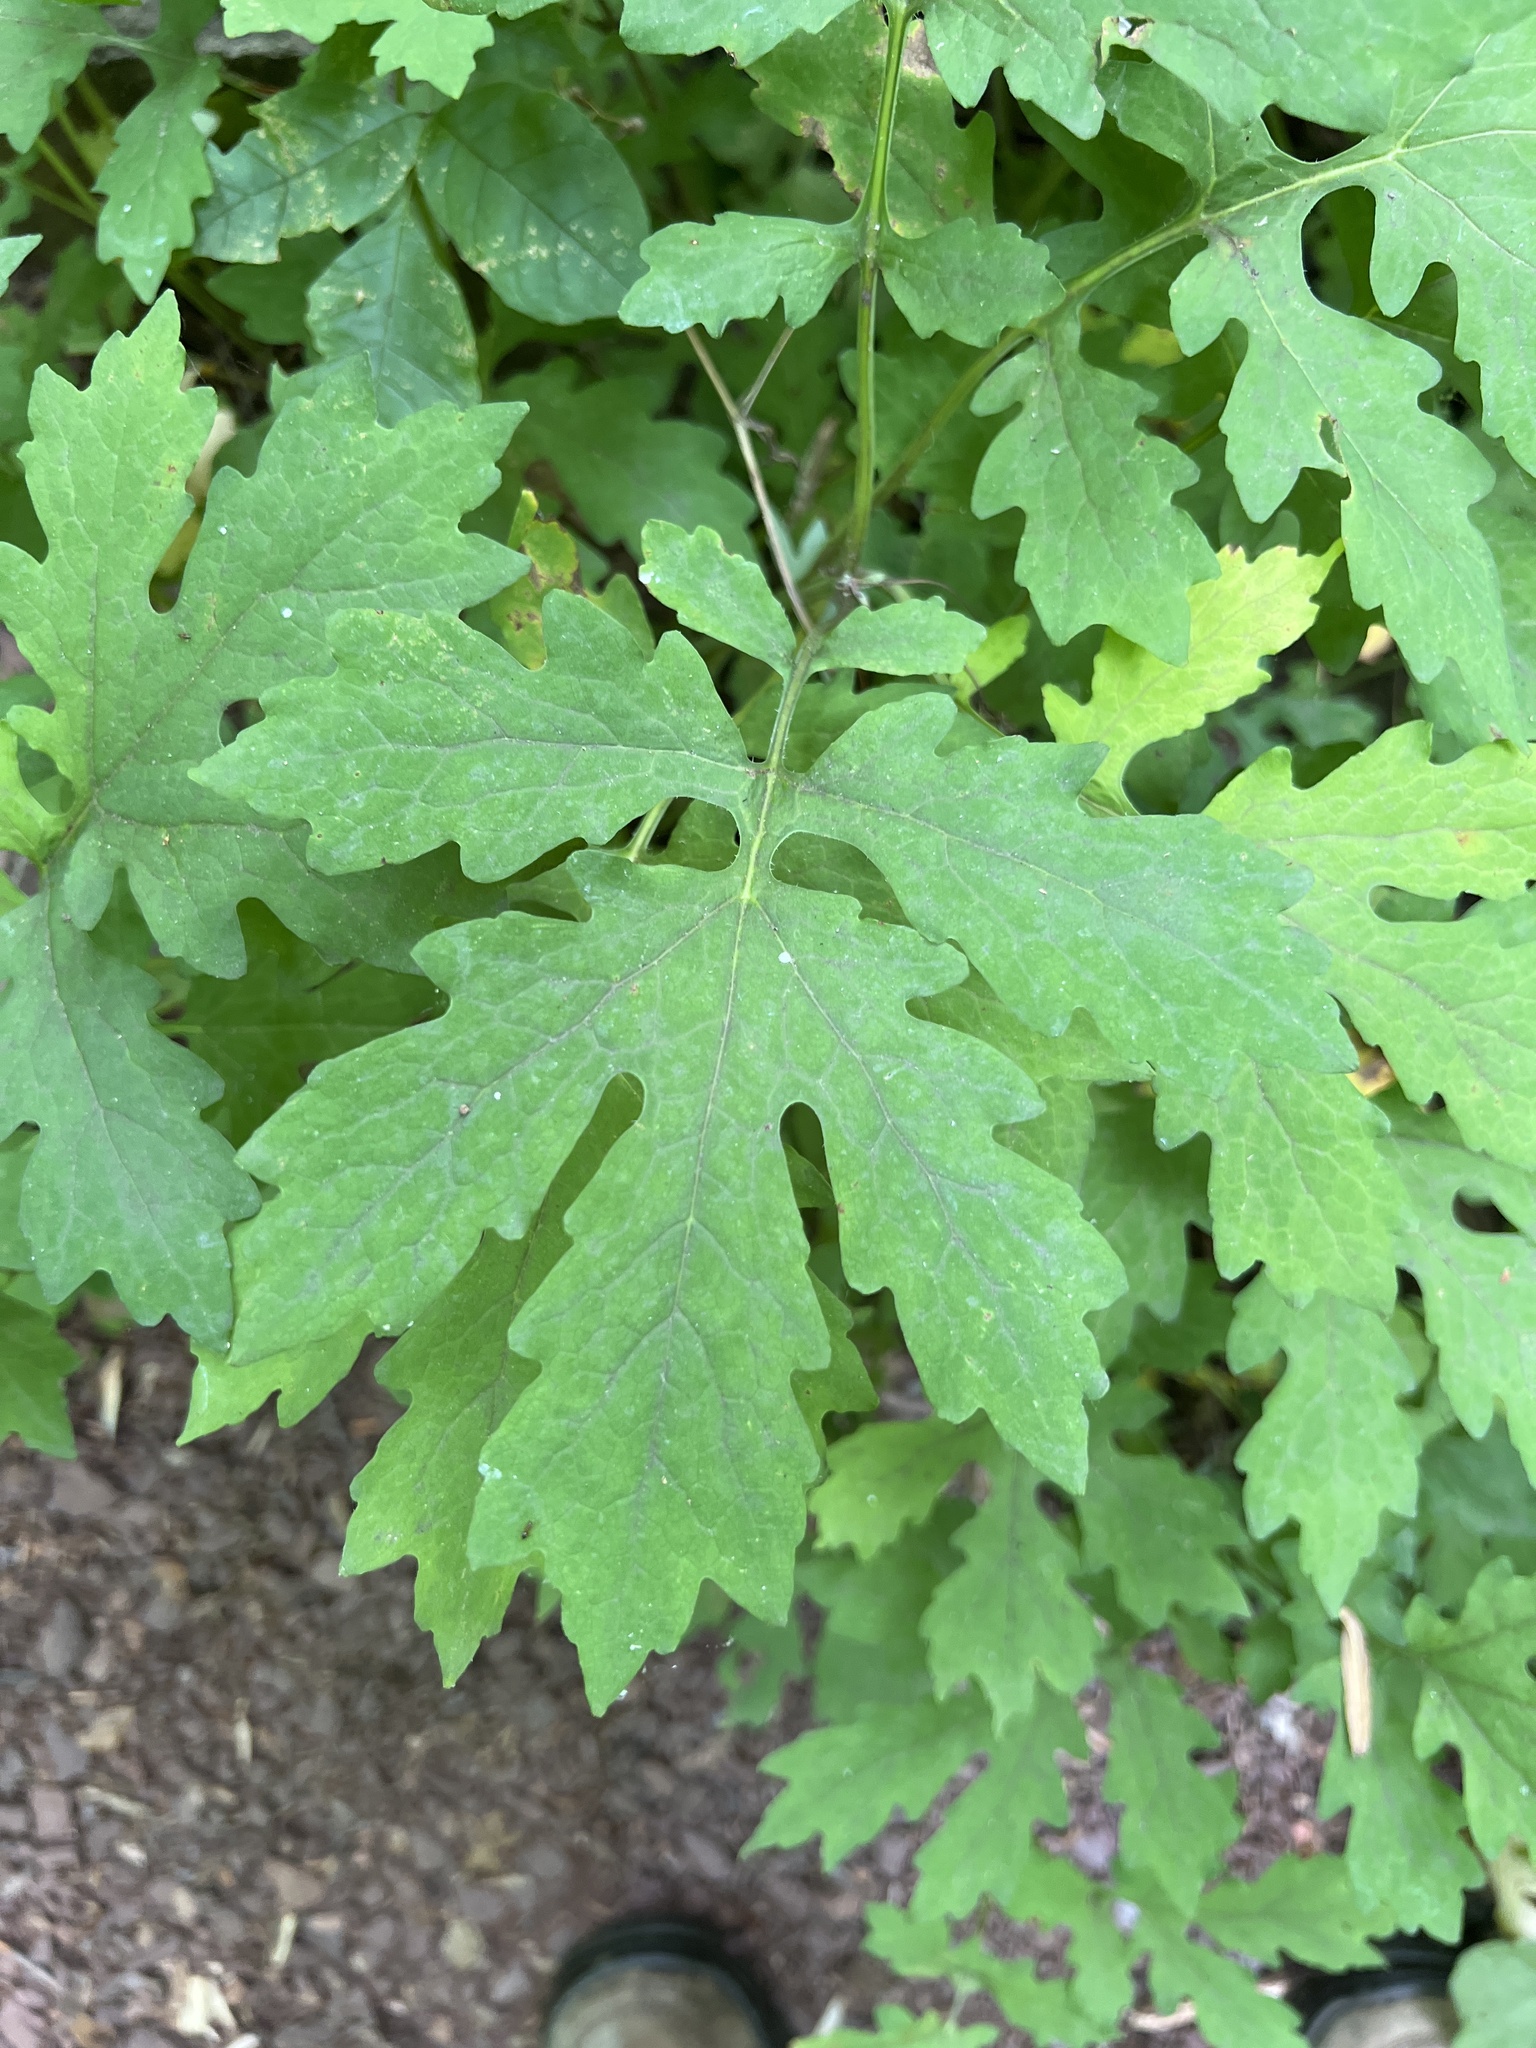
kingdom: Plantae
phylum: Tracheophyta
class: Magnoliopsida
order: Ranunculales
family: Papaveraceae
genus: Stylophorum
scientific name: Stylophorum diphyllum
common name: Celandine poppy
